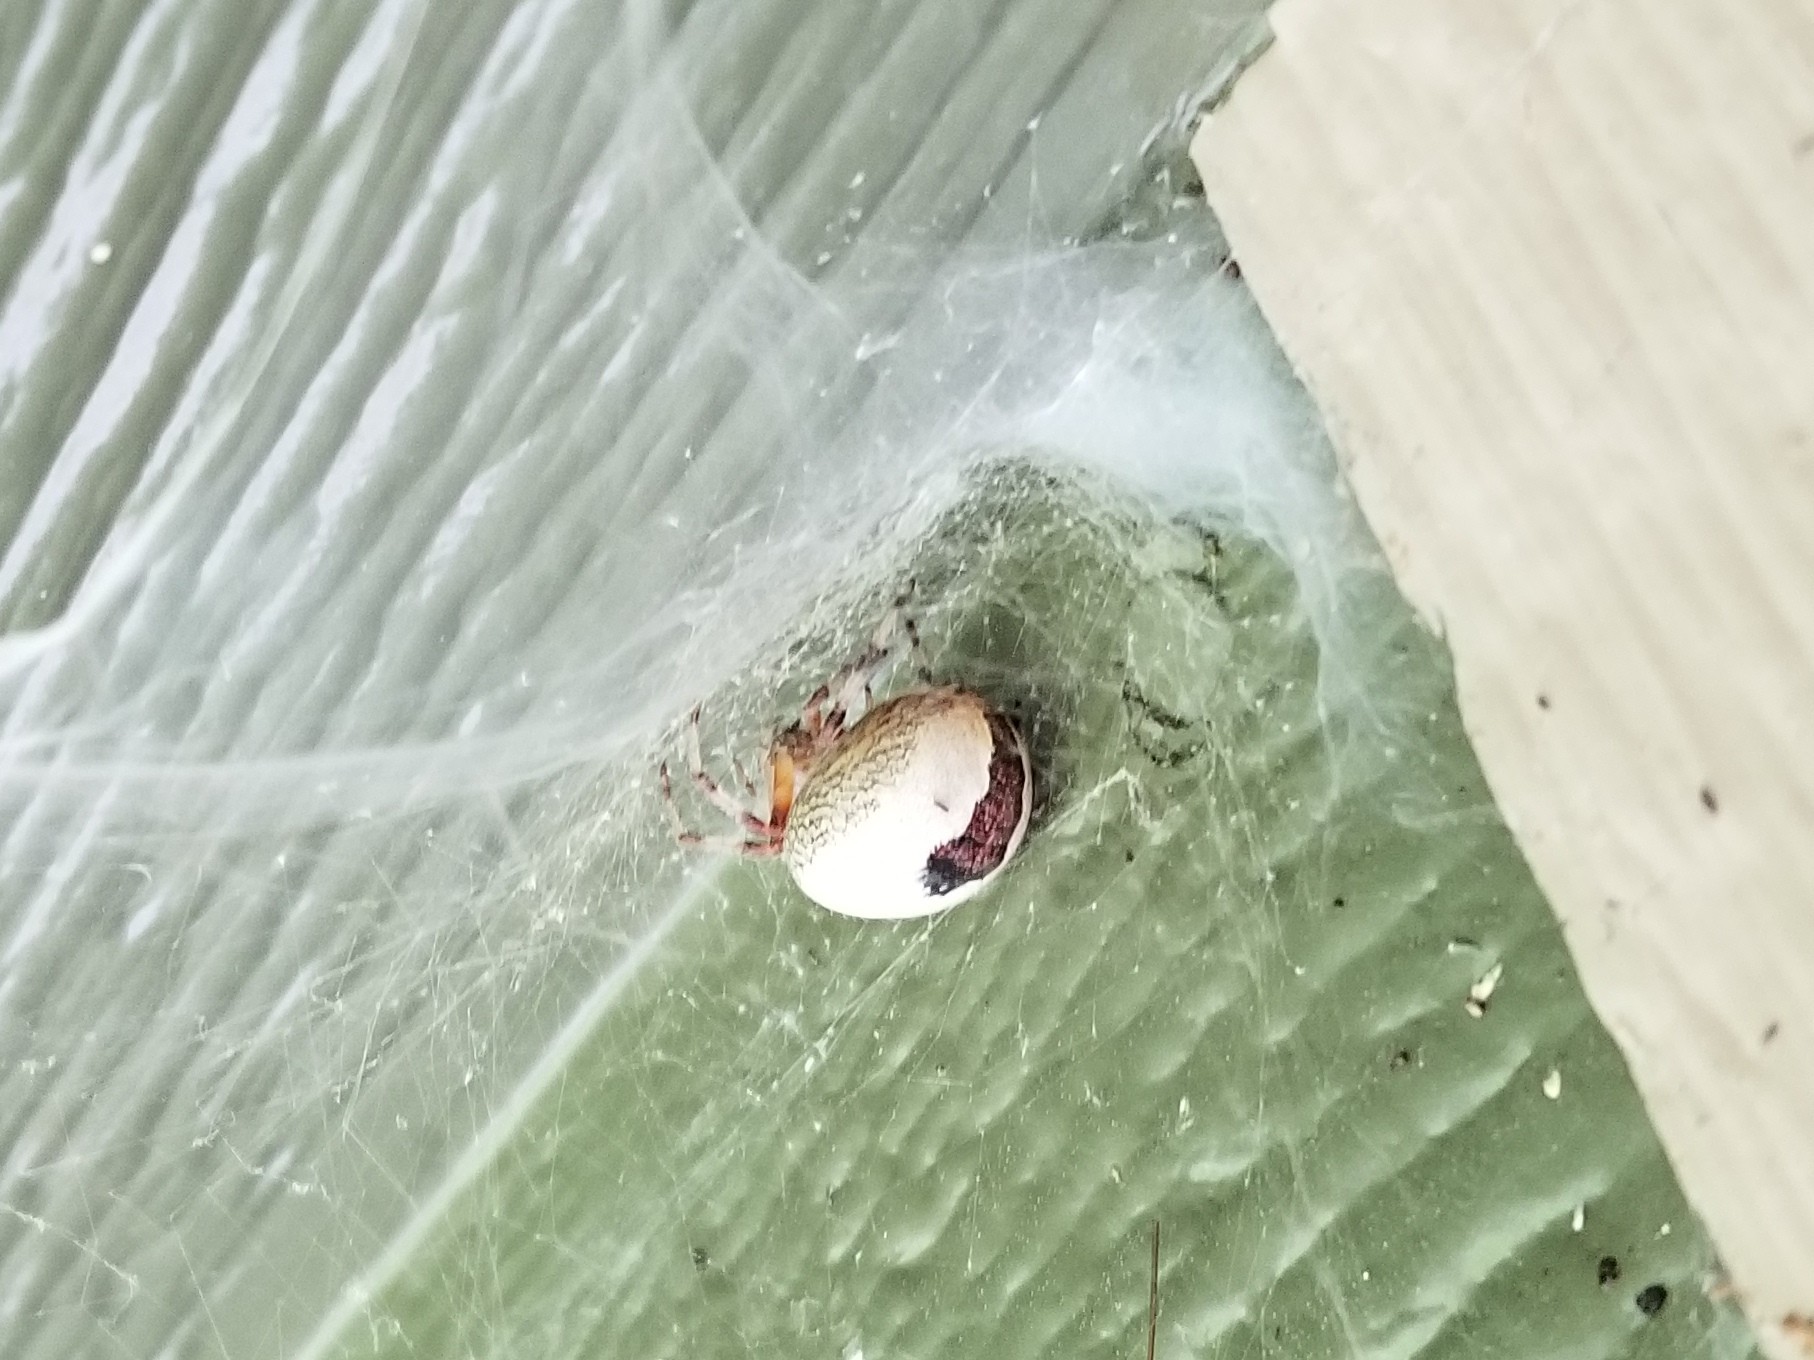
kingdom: Animalia
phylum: Arthropoda
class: Arachnida
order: Araneae
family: Araneidae
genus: Araneus
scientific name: Araneus marmoreus
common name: Marbled orbweaver
